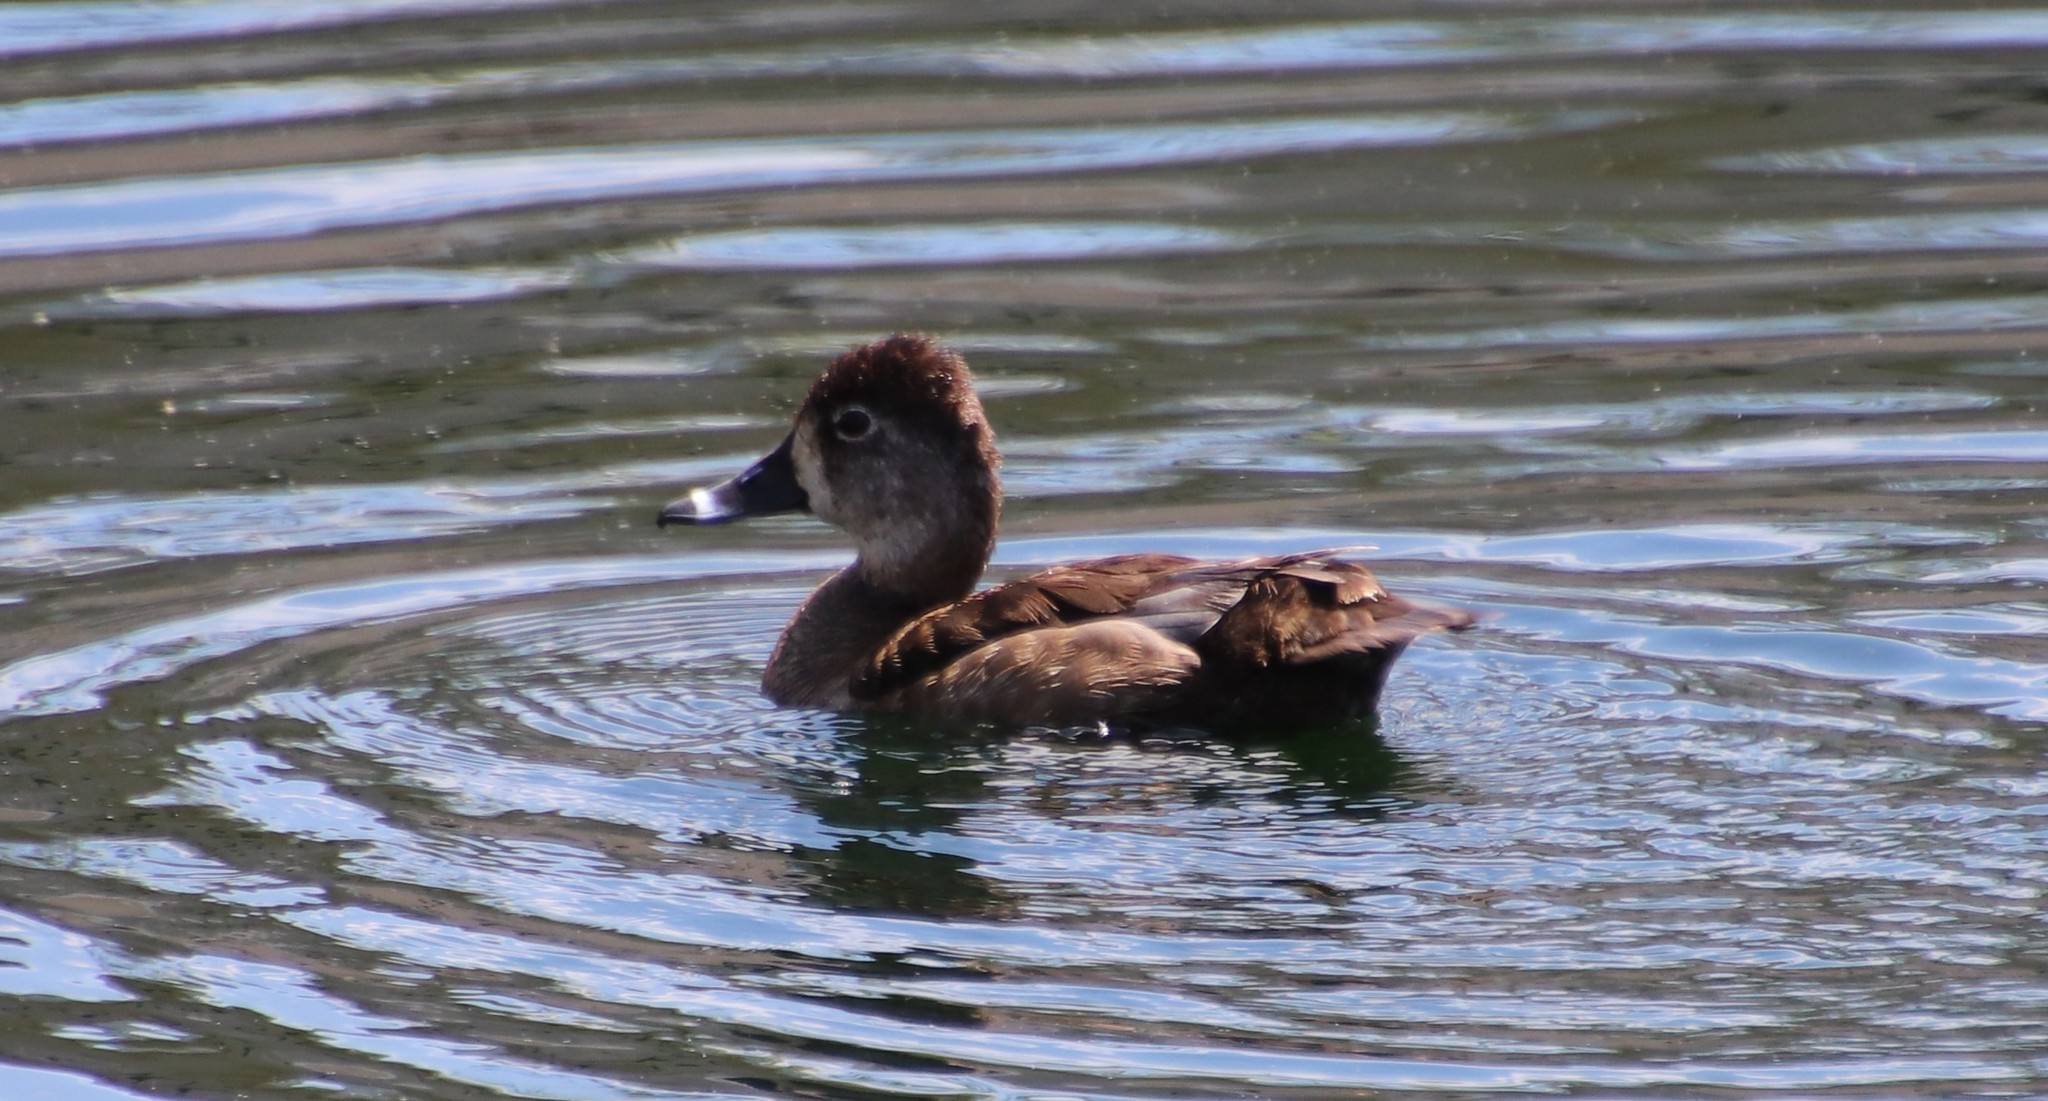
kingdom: Animalia
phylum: Chordata
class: Aves
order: Anseriformes
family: Anatidae
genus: Aythya
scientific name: Aythya collaris
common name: Ring-necked duck
